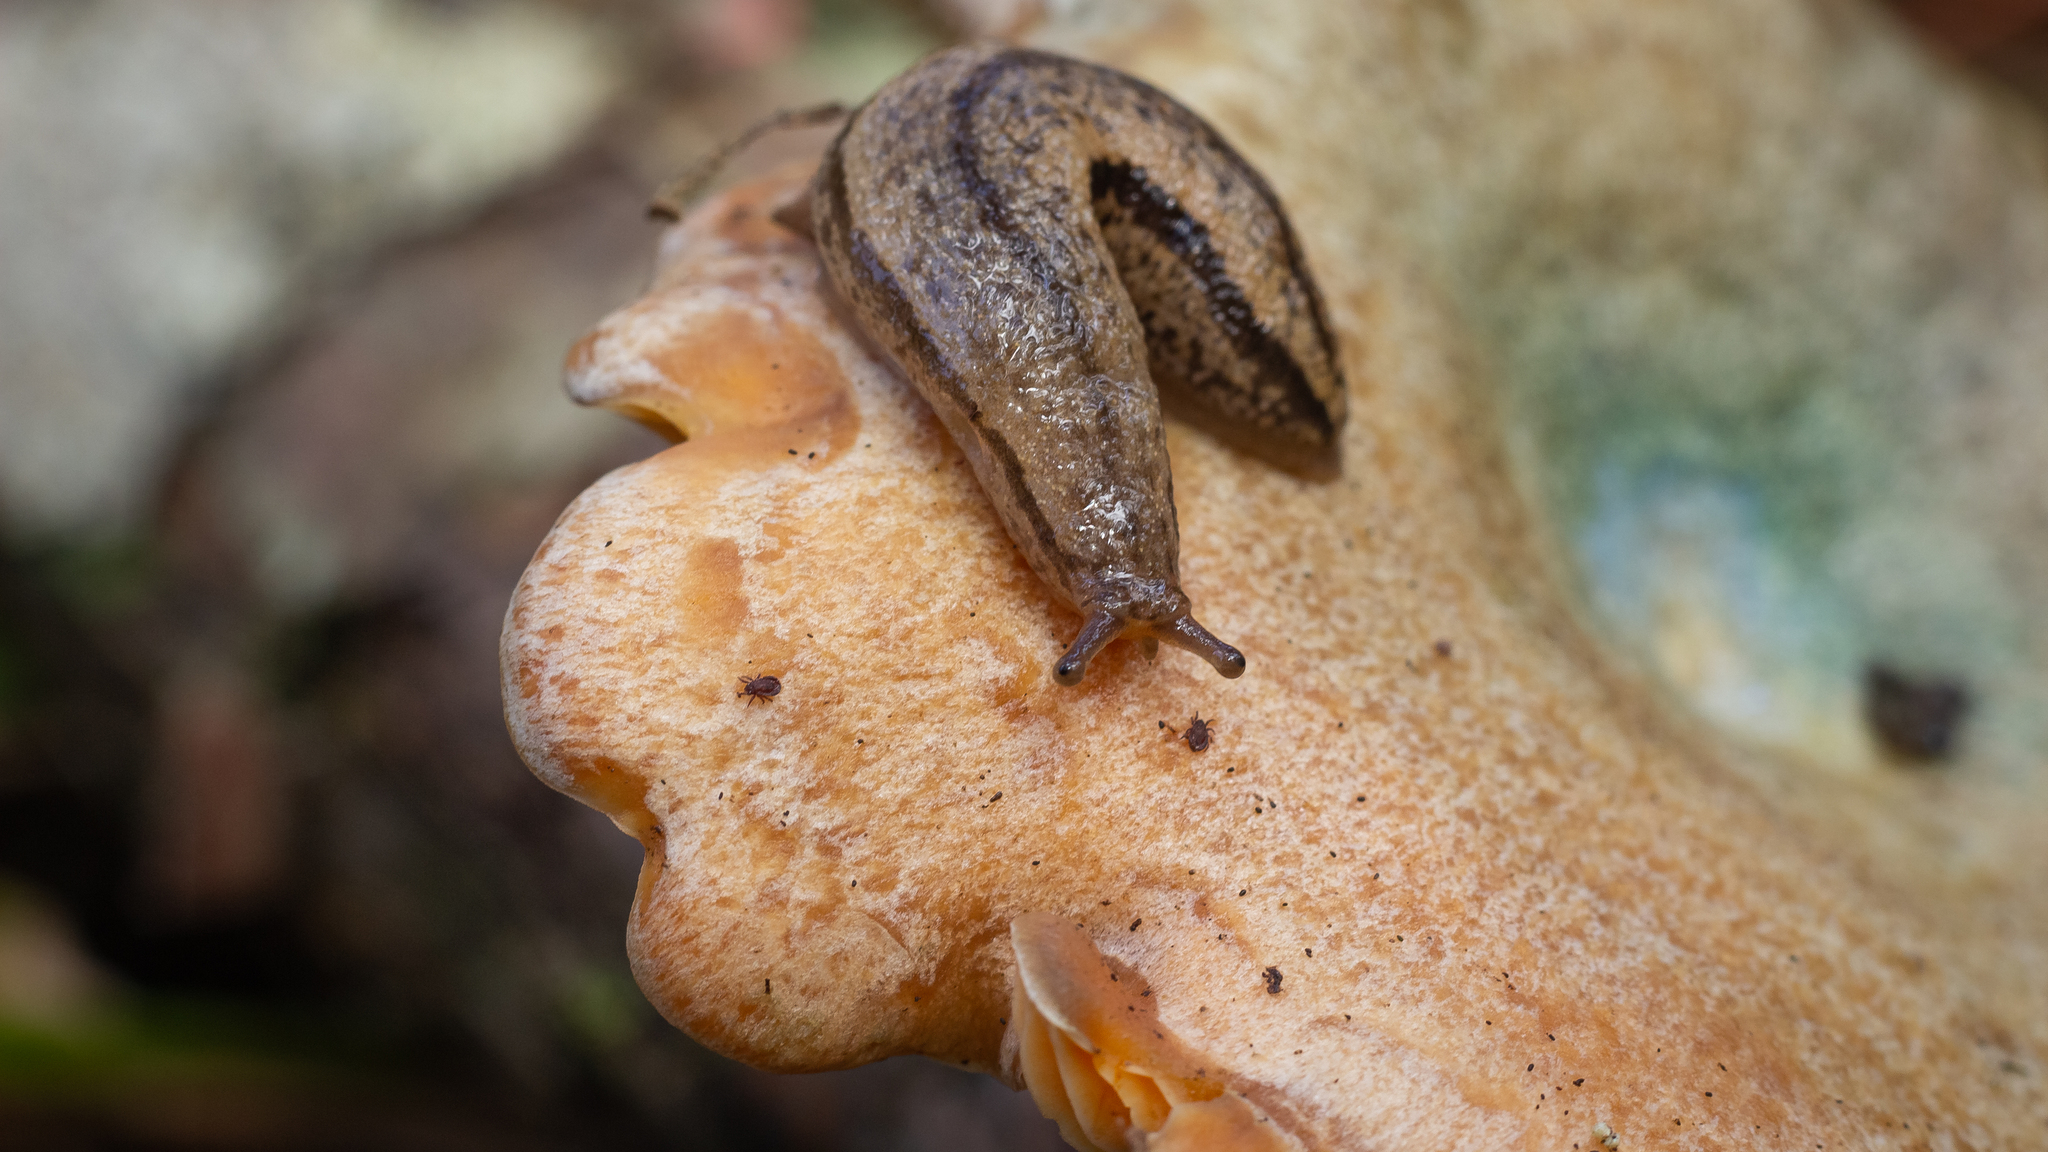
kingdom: Animalia
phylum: Mollusca
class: Gastropoda
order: Stylommatophora
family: Philomycidae
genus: Meghimatium
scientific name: Meghimatium pictum
